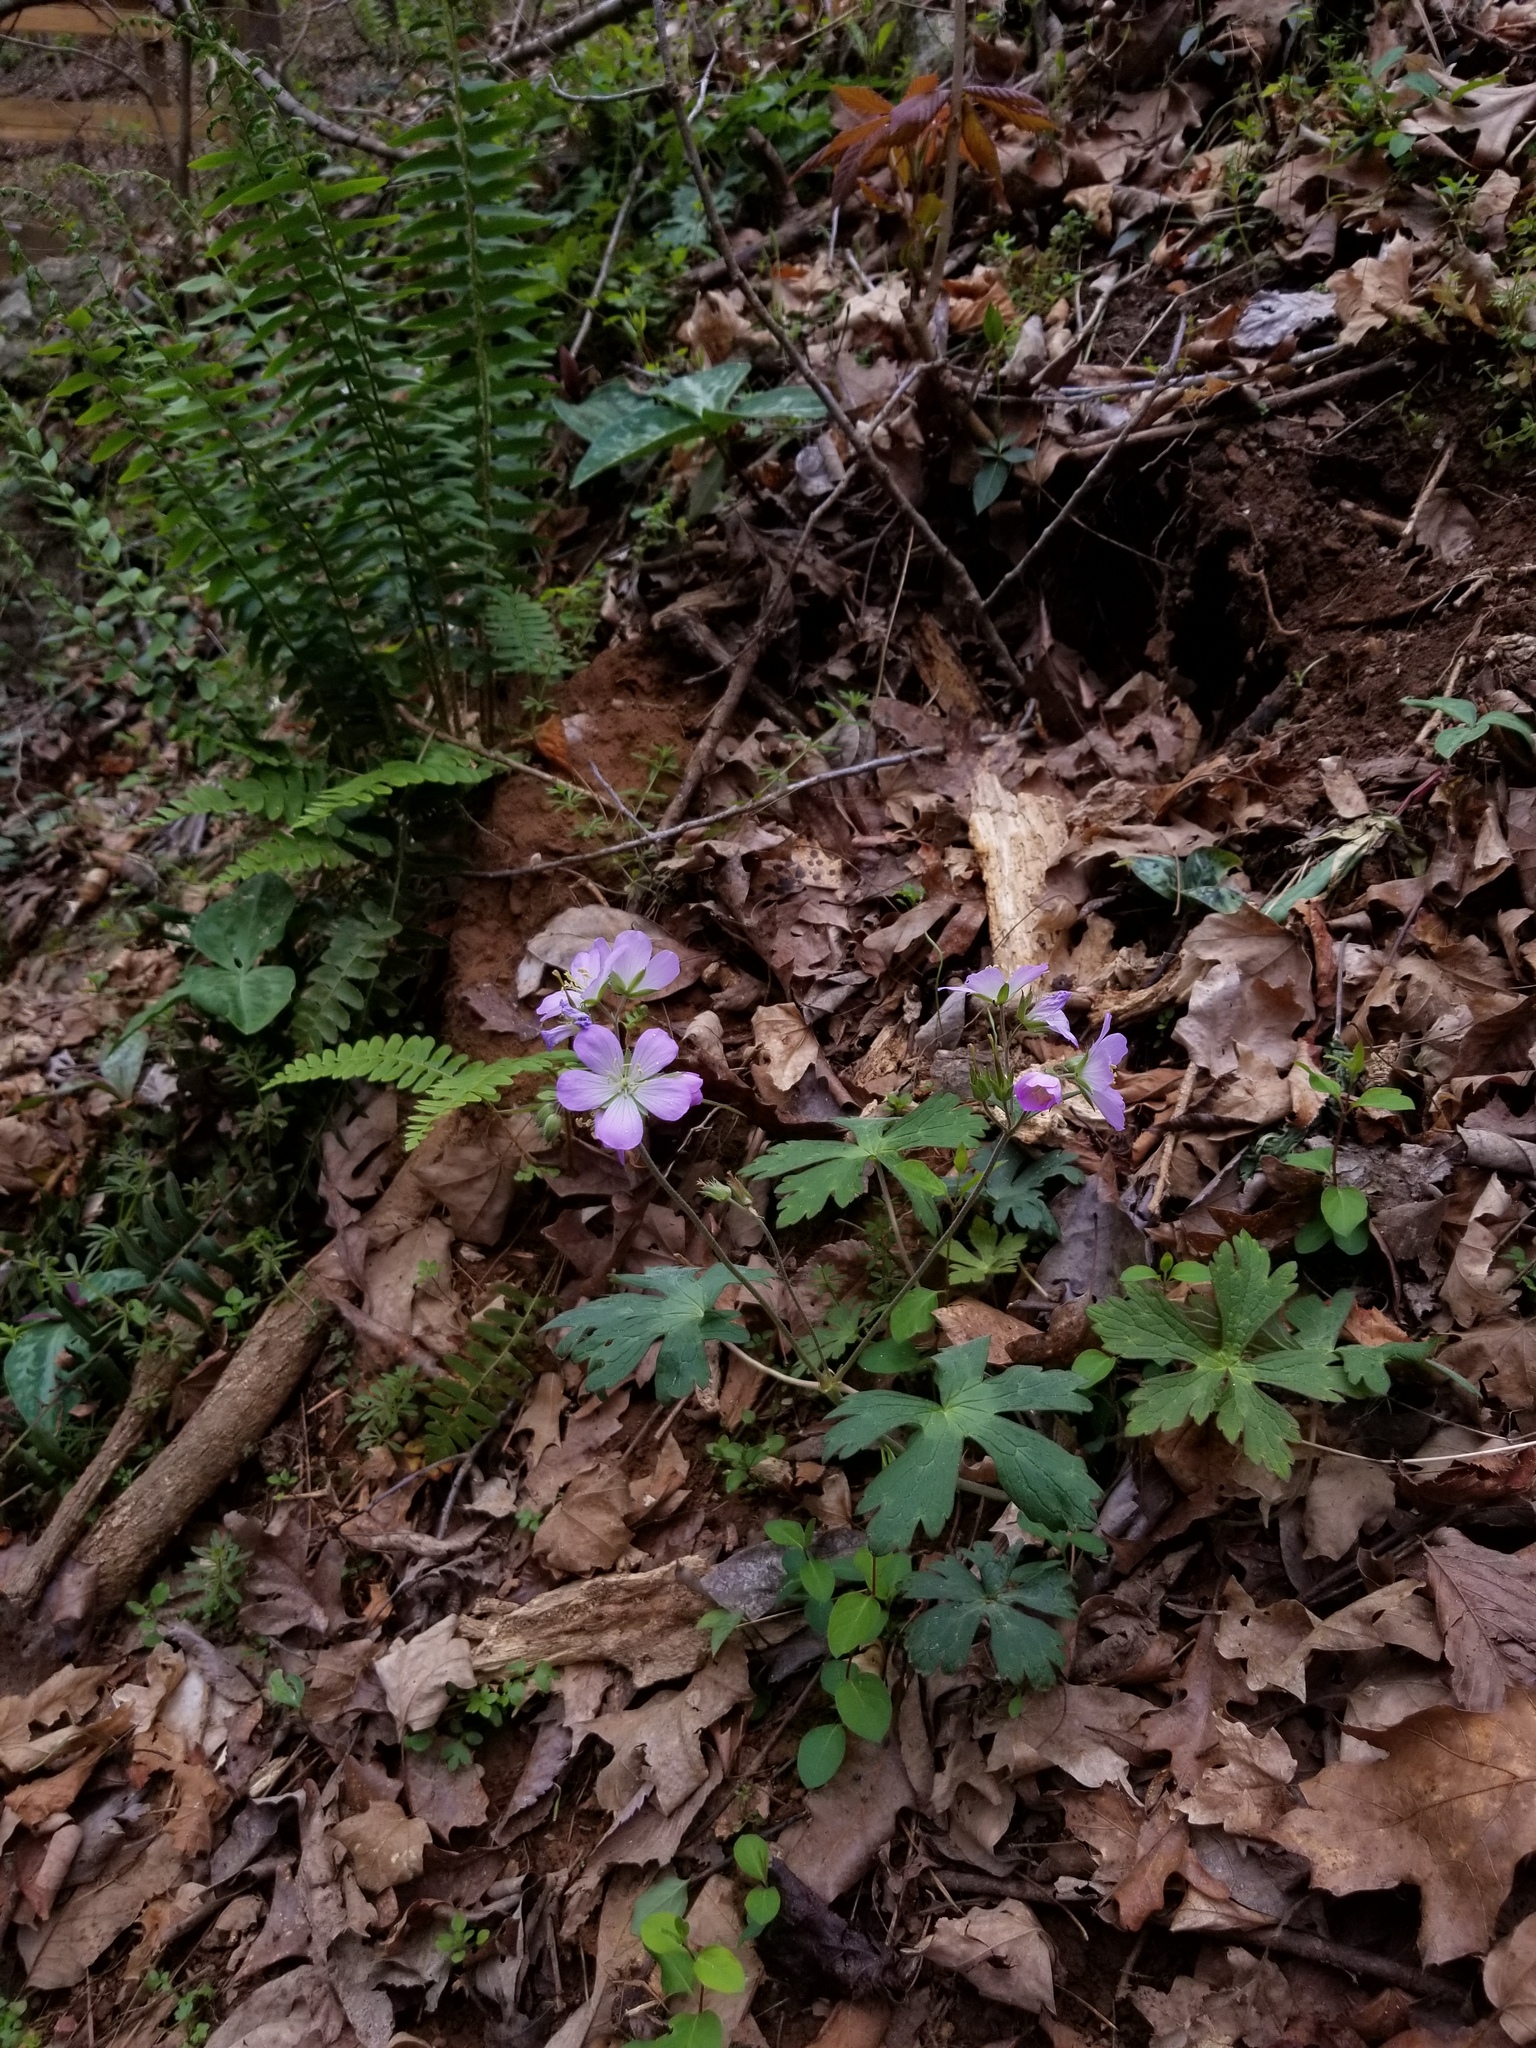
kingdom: Plantae
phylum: Tracheophyta
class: Magnoliopsida
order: Geraniales
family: Geraniaceae
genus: Geranium
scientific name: Geranium maculatum
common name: Spotted geranium
